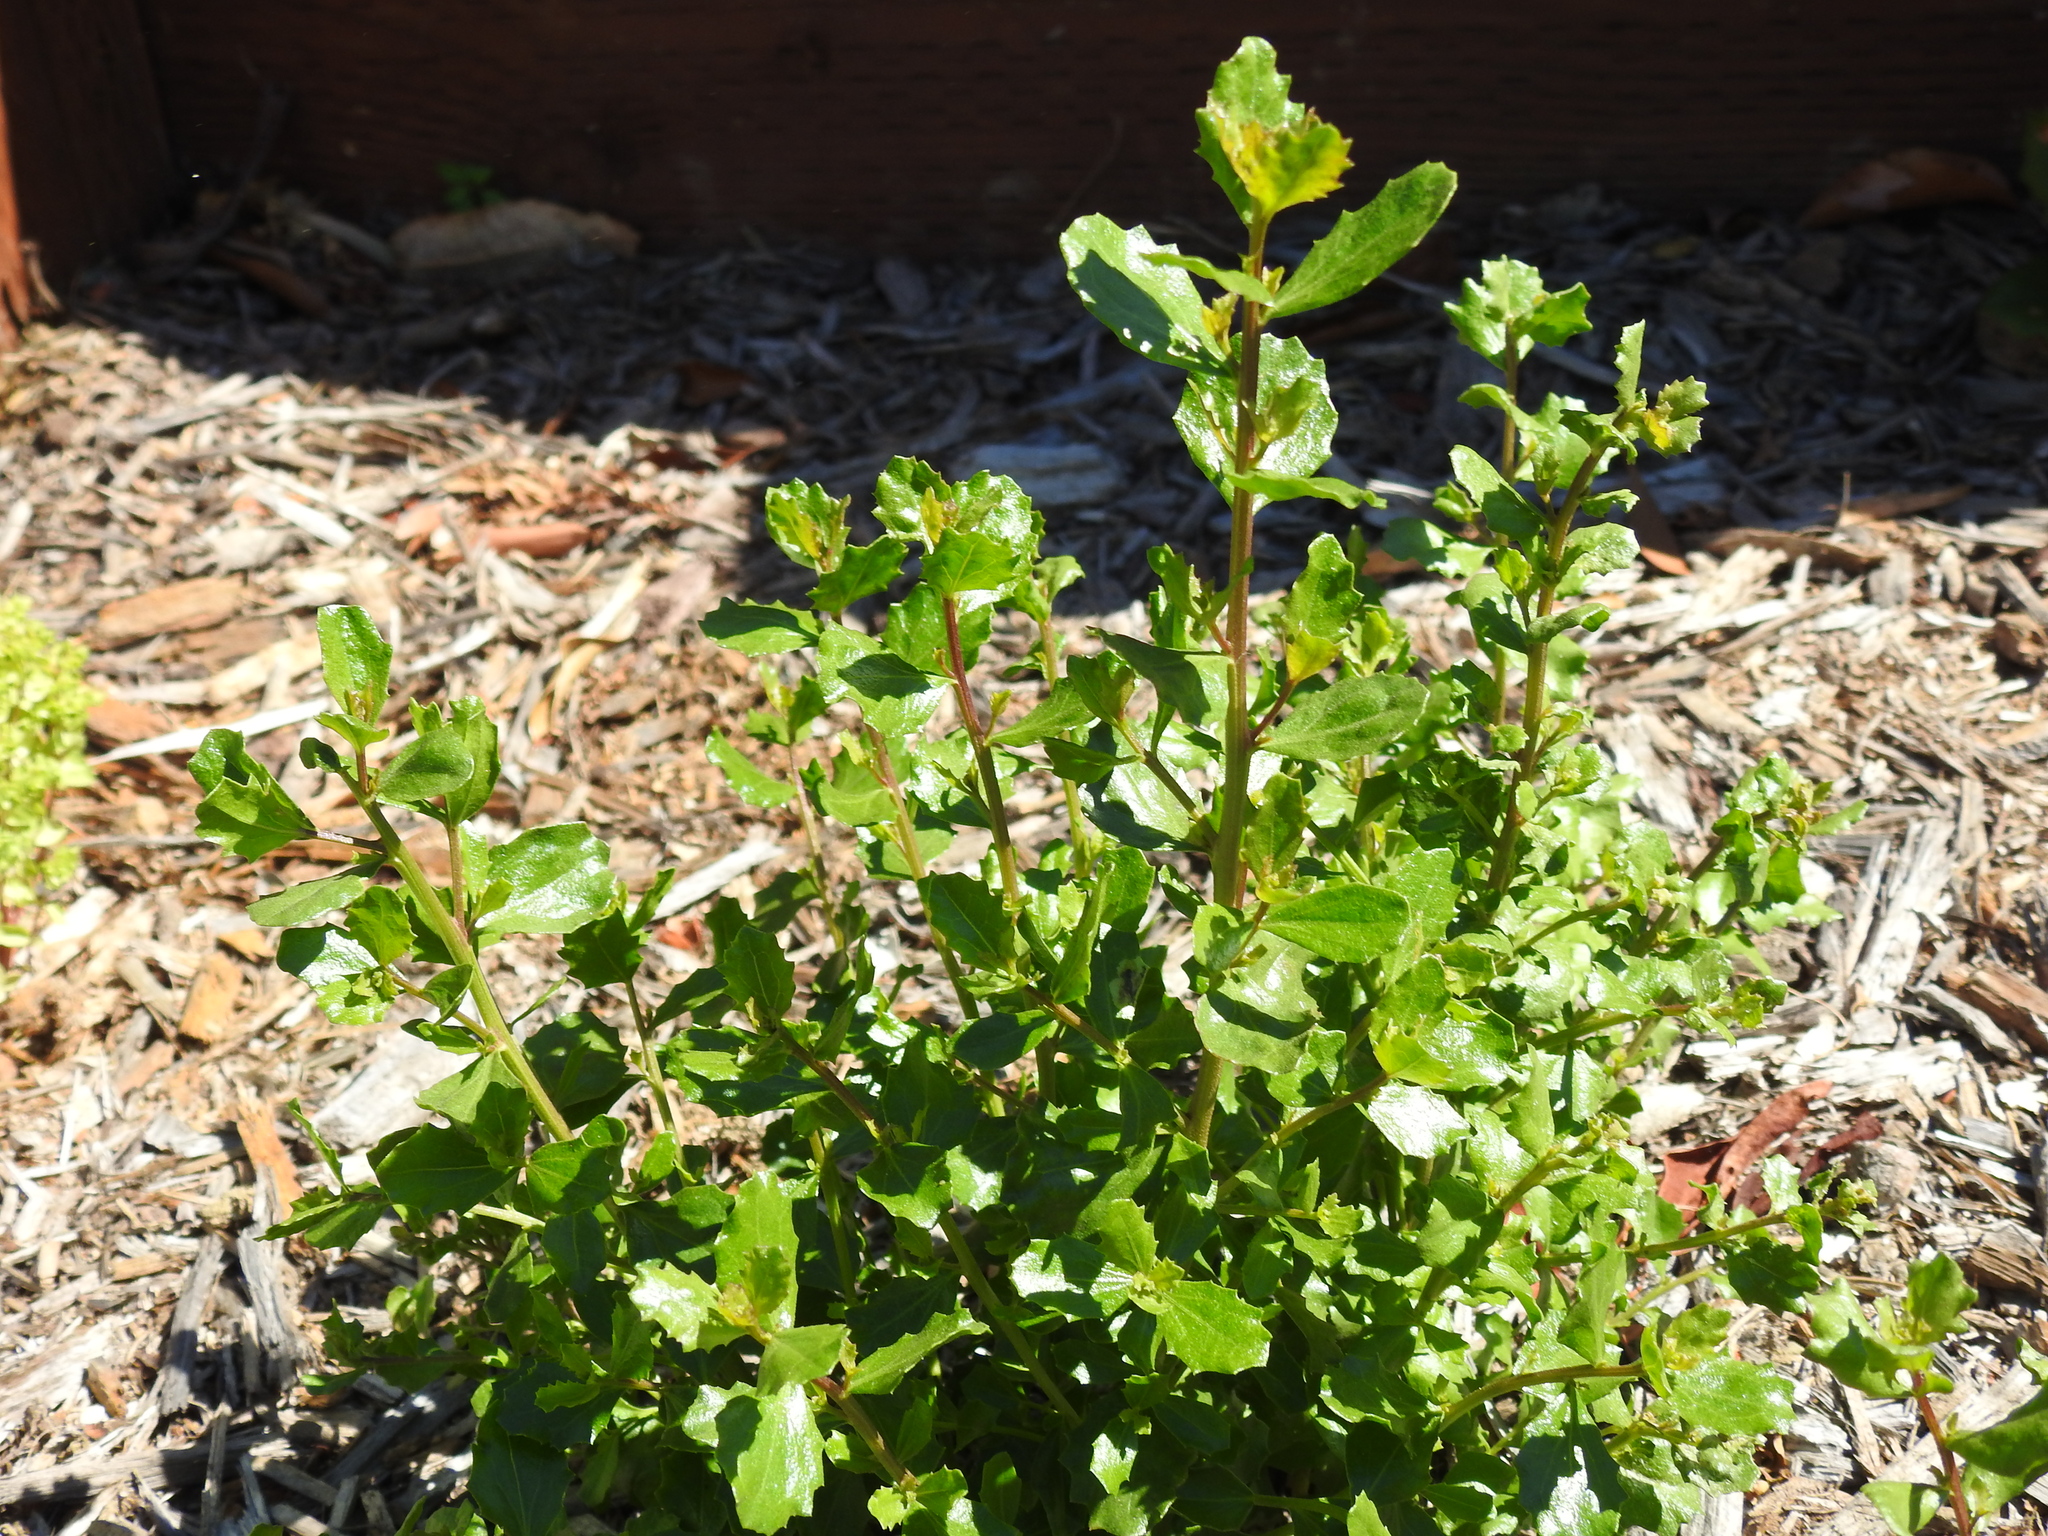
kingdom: Plantae
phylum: Tracheophyta
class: Magnoliopsida
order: Asterales
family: Asteraceae
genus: Baccharis
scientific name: Baccharis pilularis
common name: Coyotebrush
